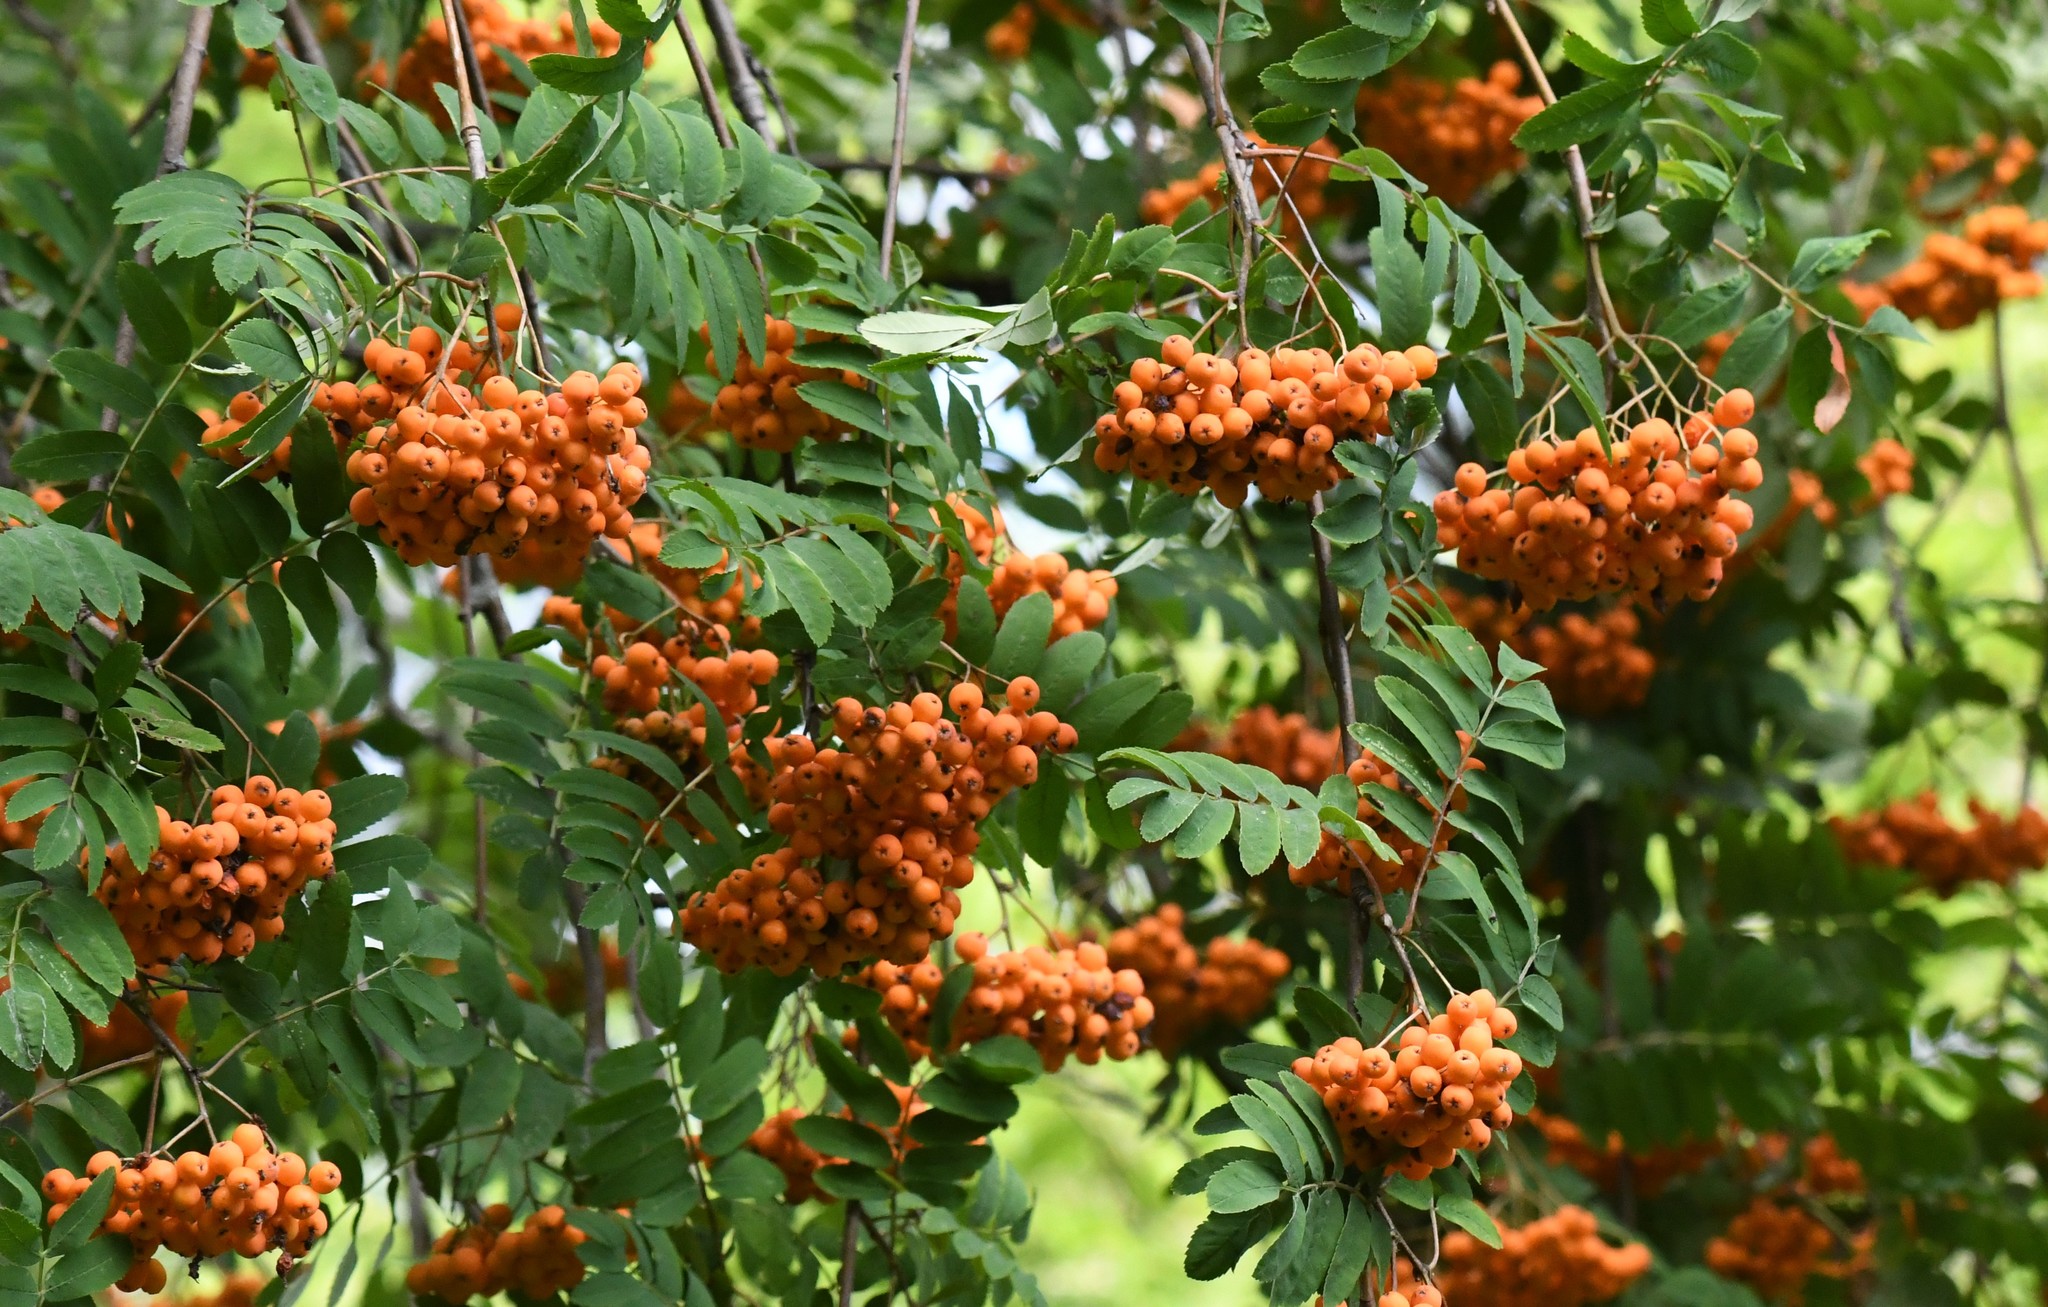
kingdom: Plantae
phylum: Tracheophyta
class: Magnoliopsida
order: Rosales
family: Rosaceae
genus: Sorbus
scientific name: Sorbus aucuparia
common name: Rowan
